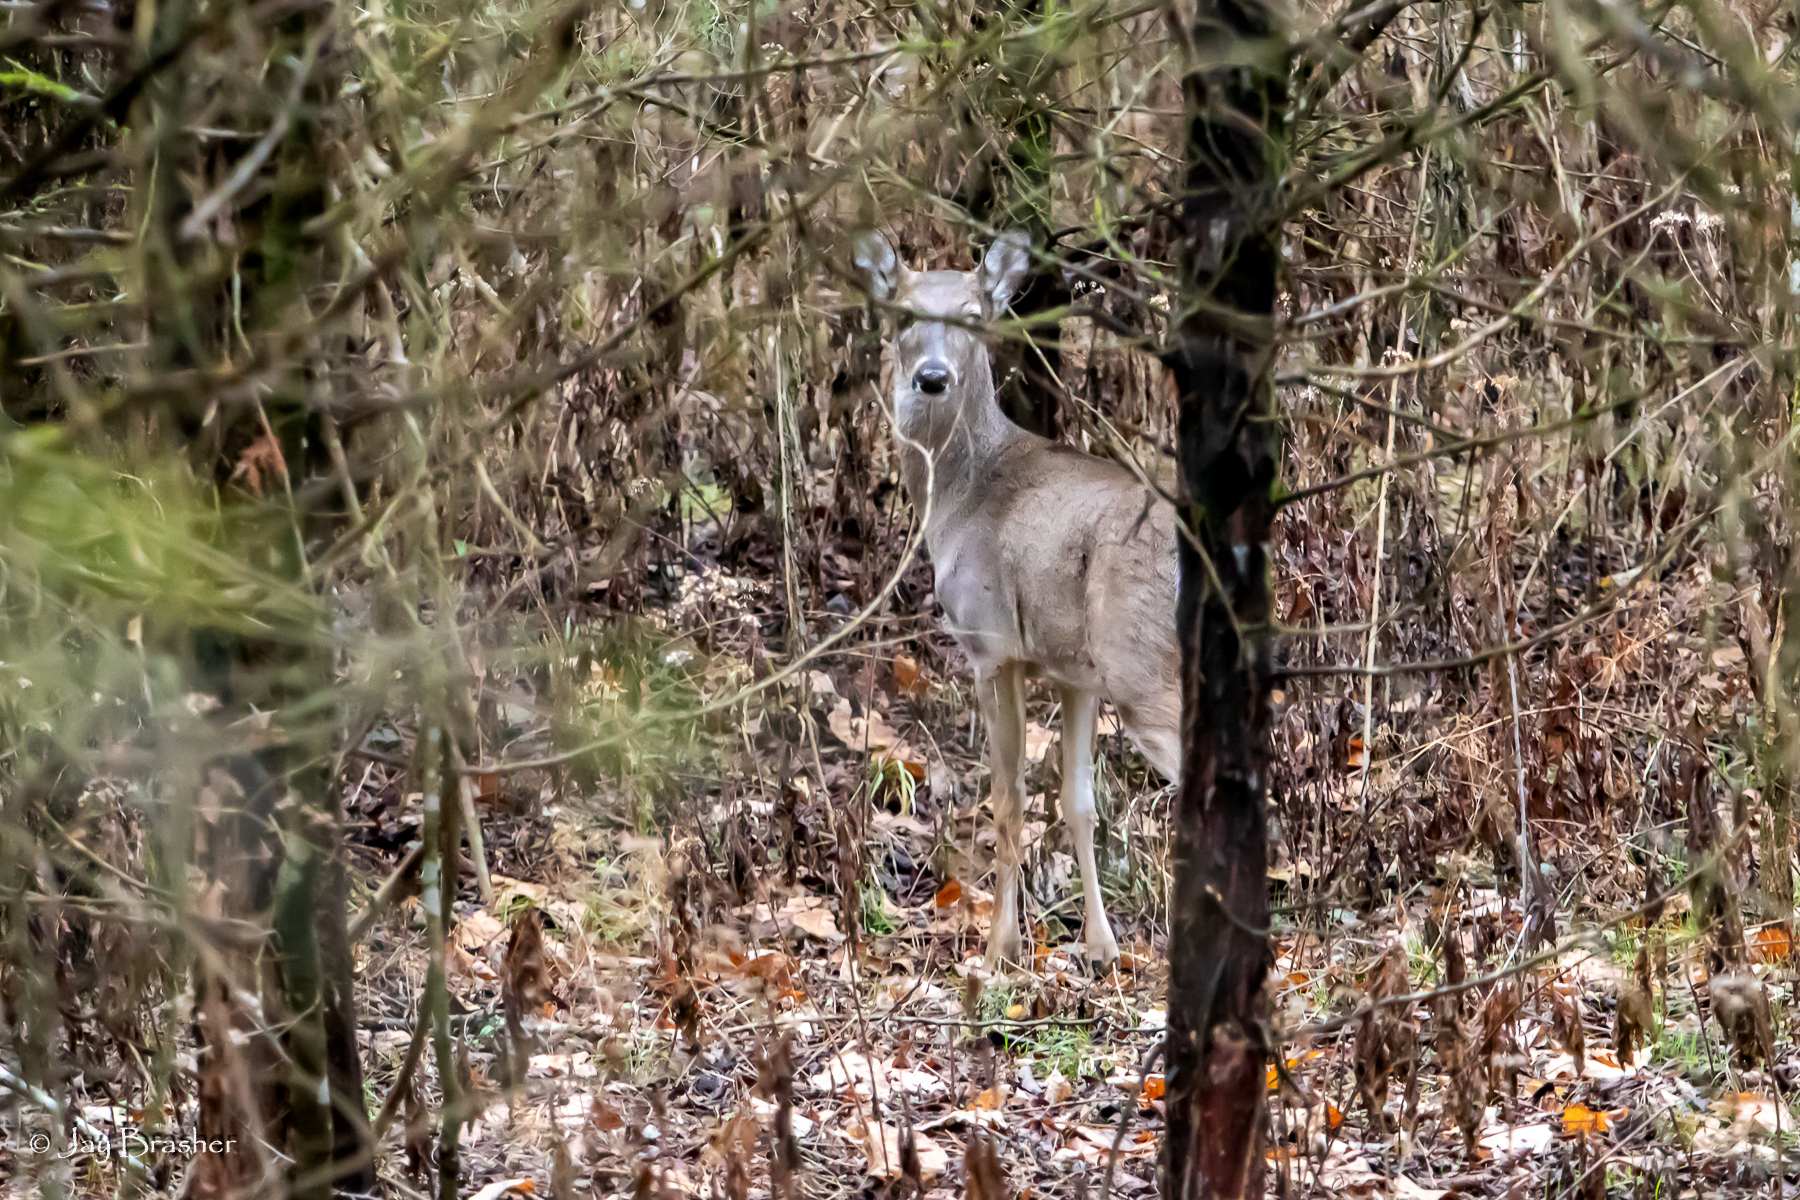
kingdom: Animalia
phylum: Chordata
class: Mammalia
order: Artiodactyla
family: Cervidae
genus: Odocoileus
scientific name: Odocoileus virginianus
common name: White-tailed deer
